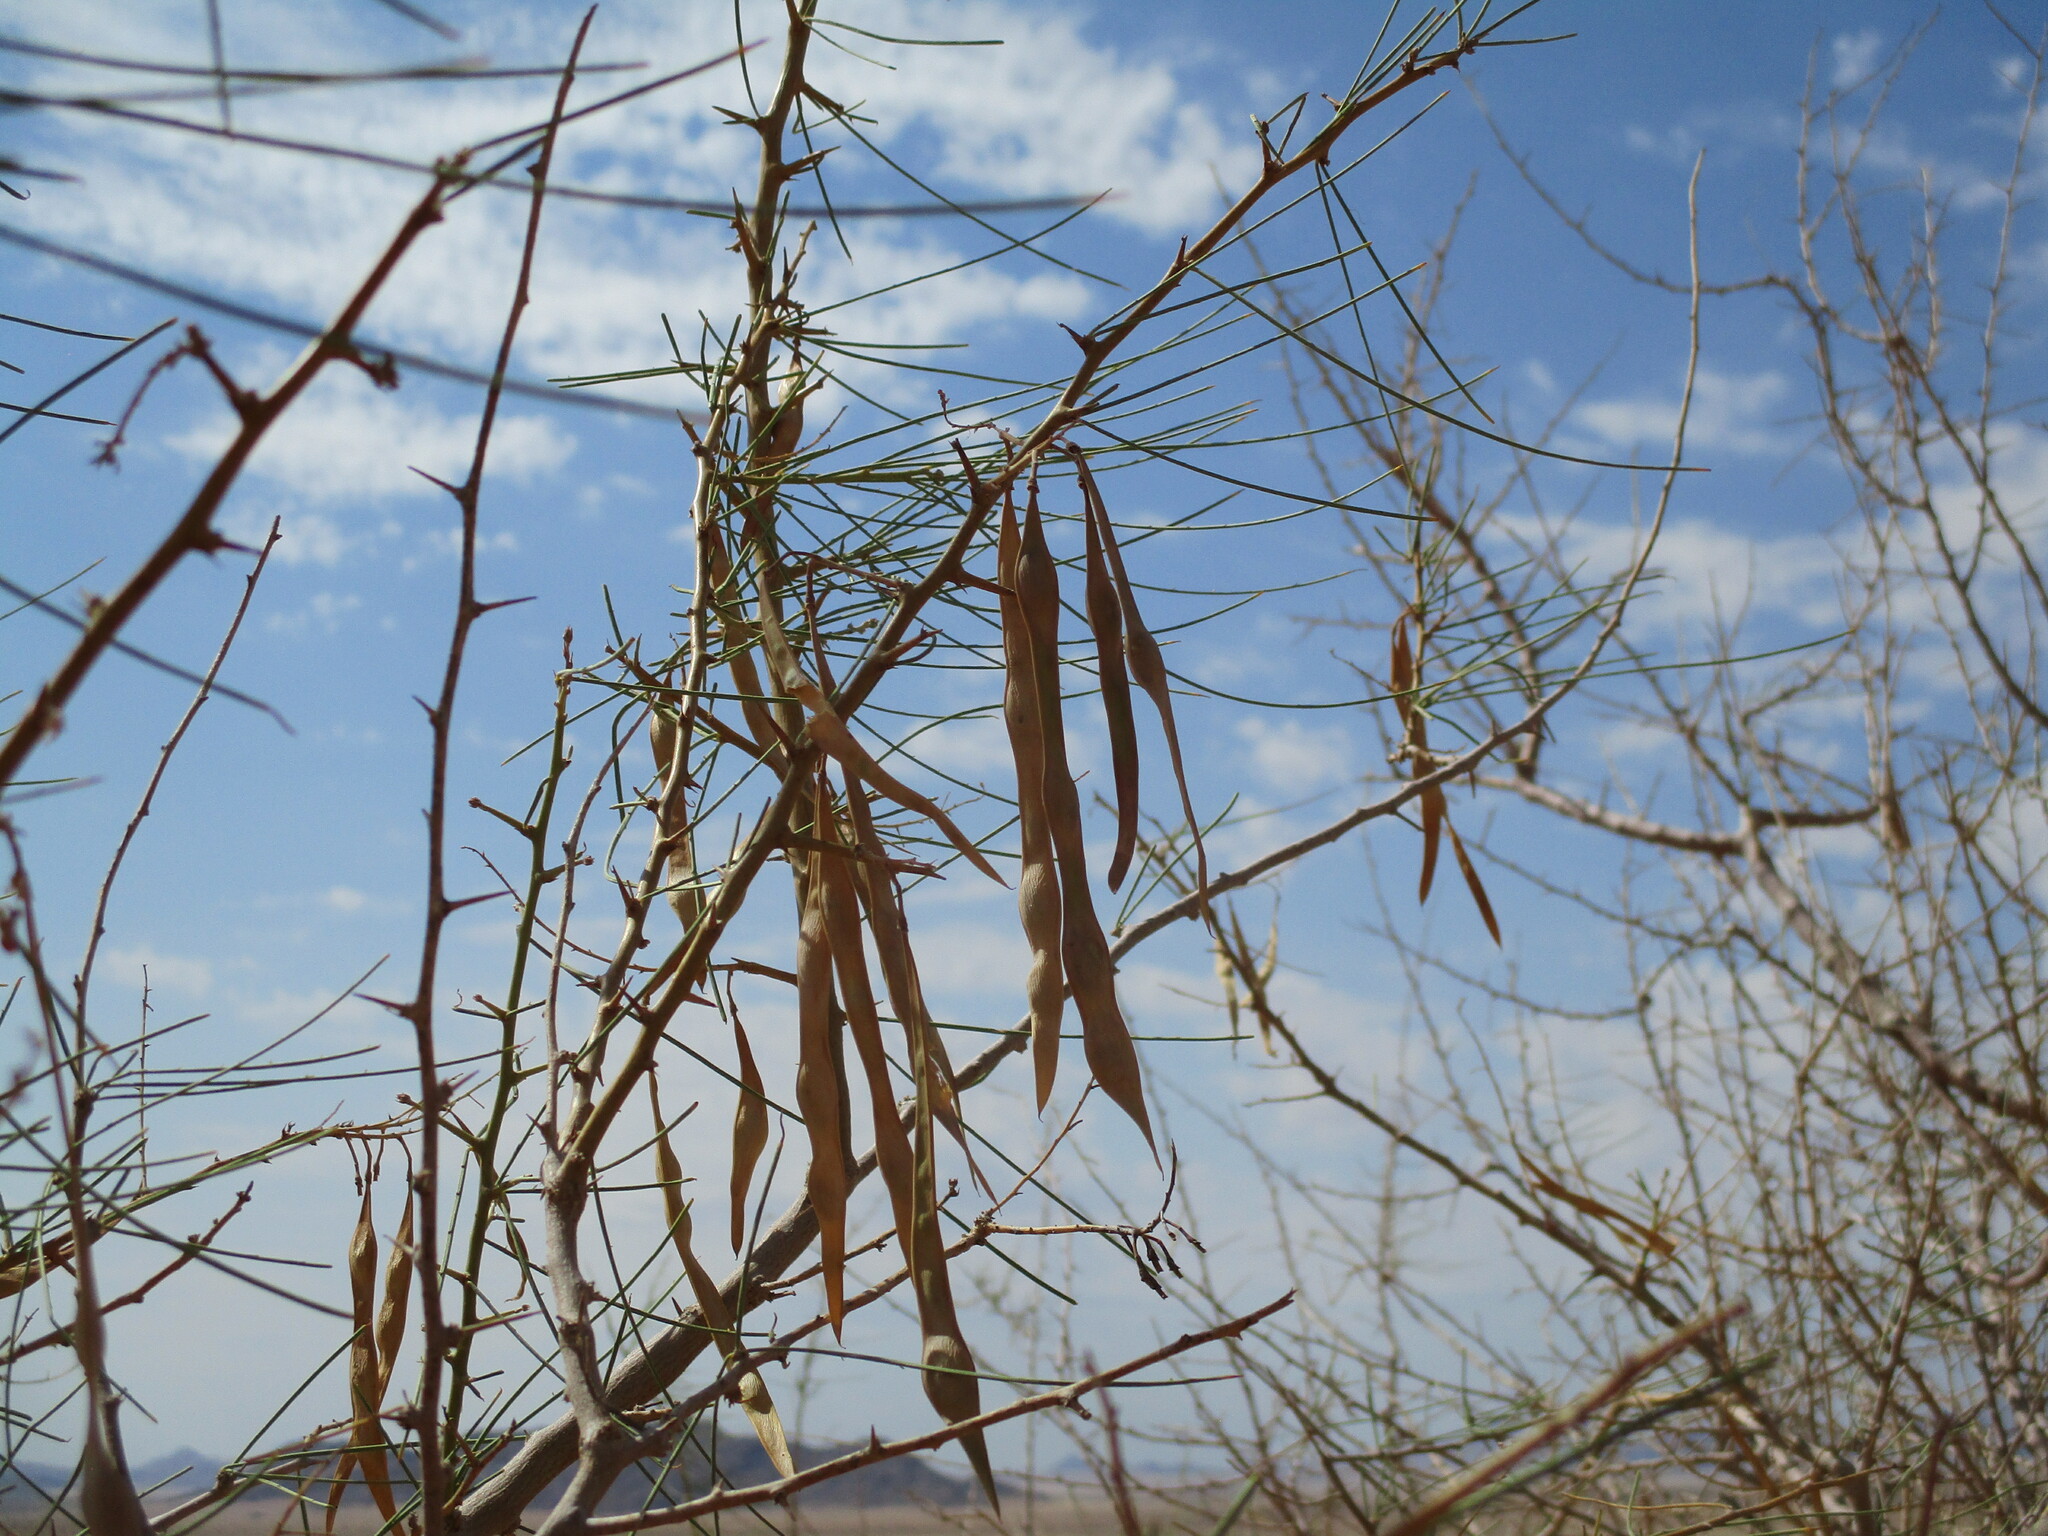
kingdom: Plantae
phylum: Tracheophyta
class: Magnoliopsida
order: Fabales
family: Fabaceae
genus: Parkinsonia
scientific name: Parkinsonia africana
